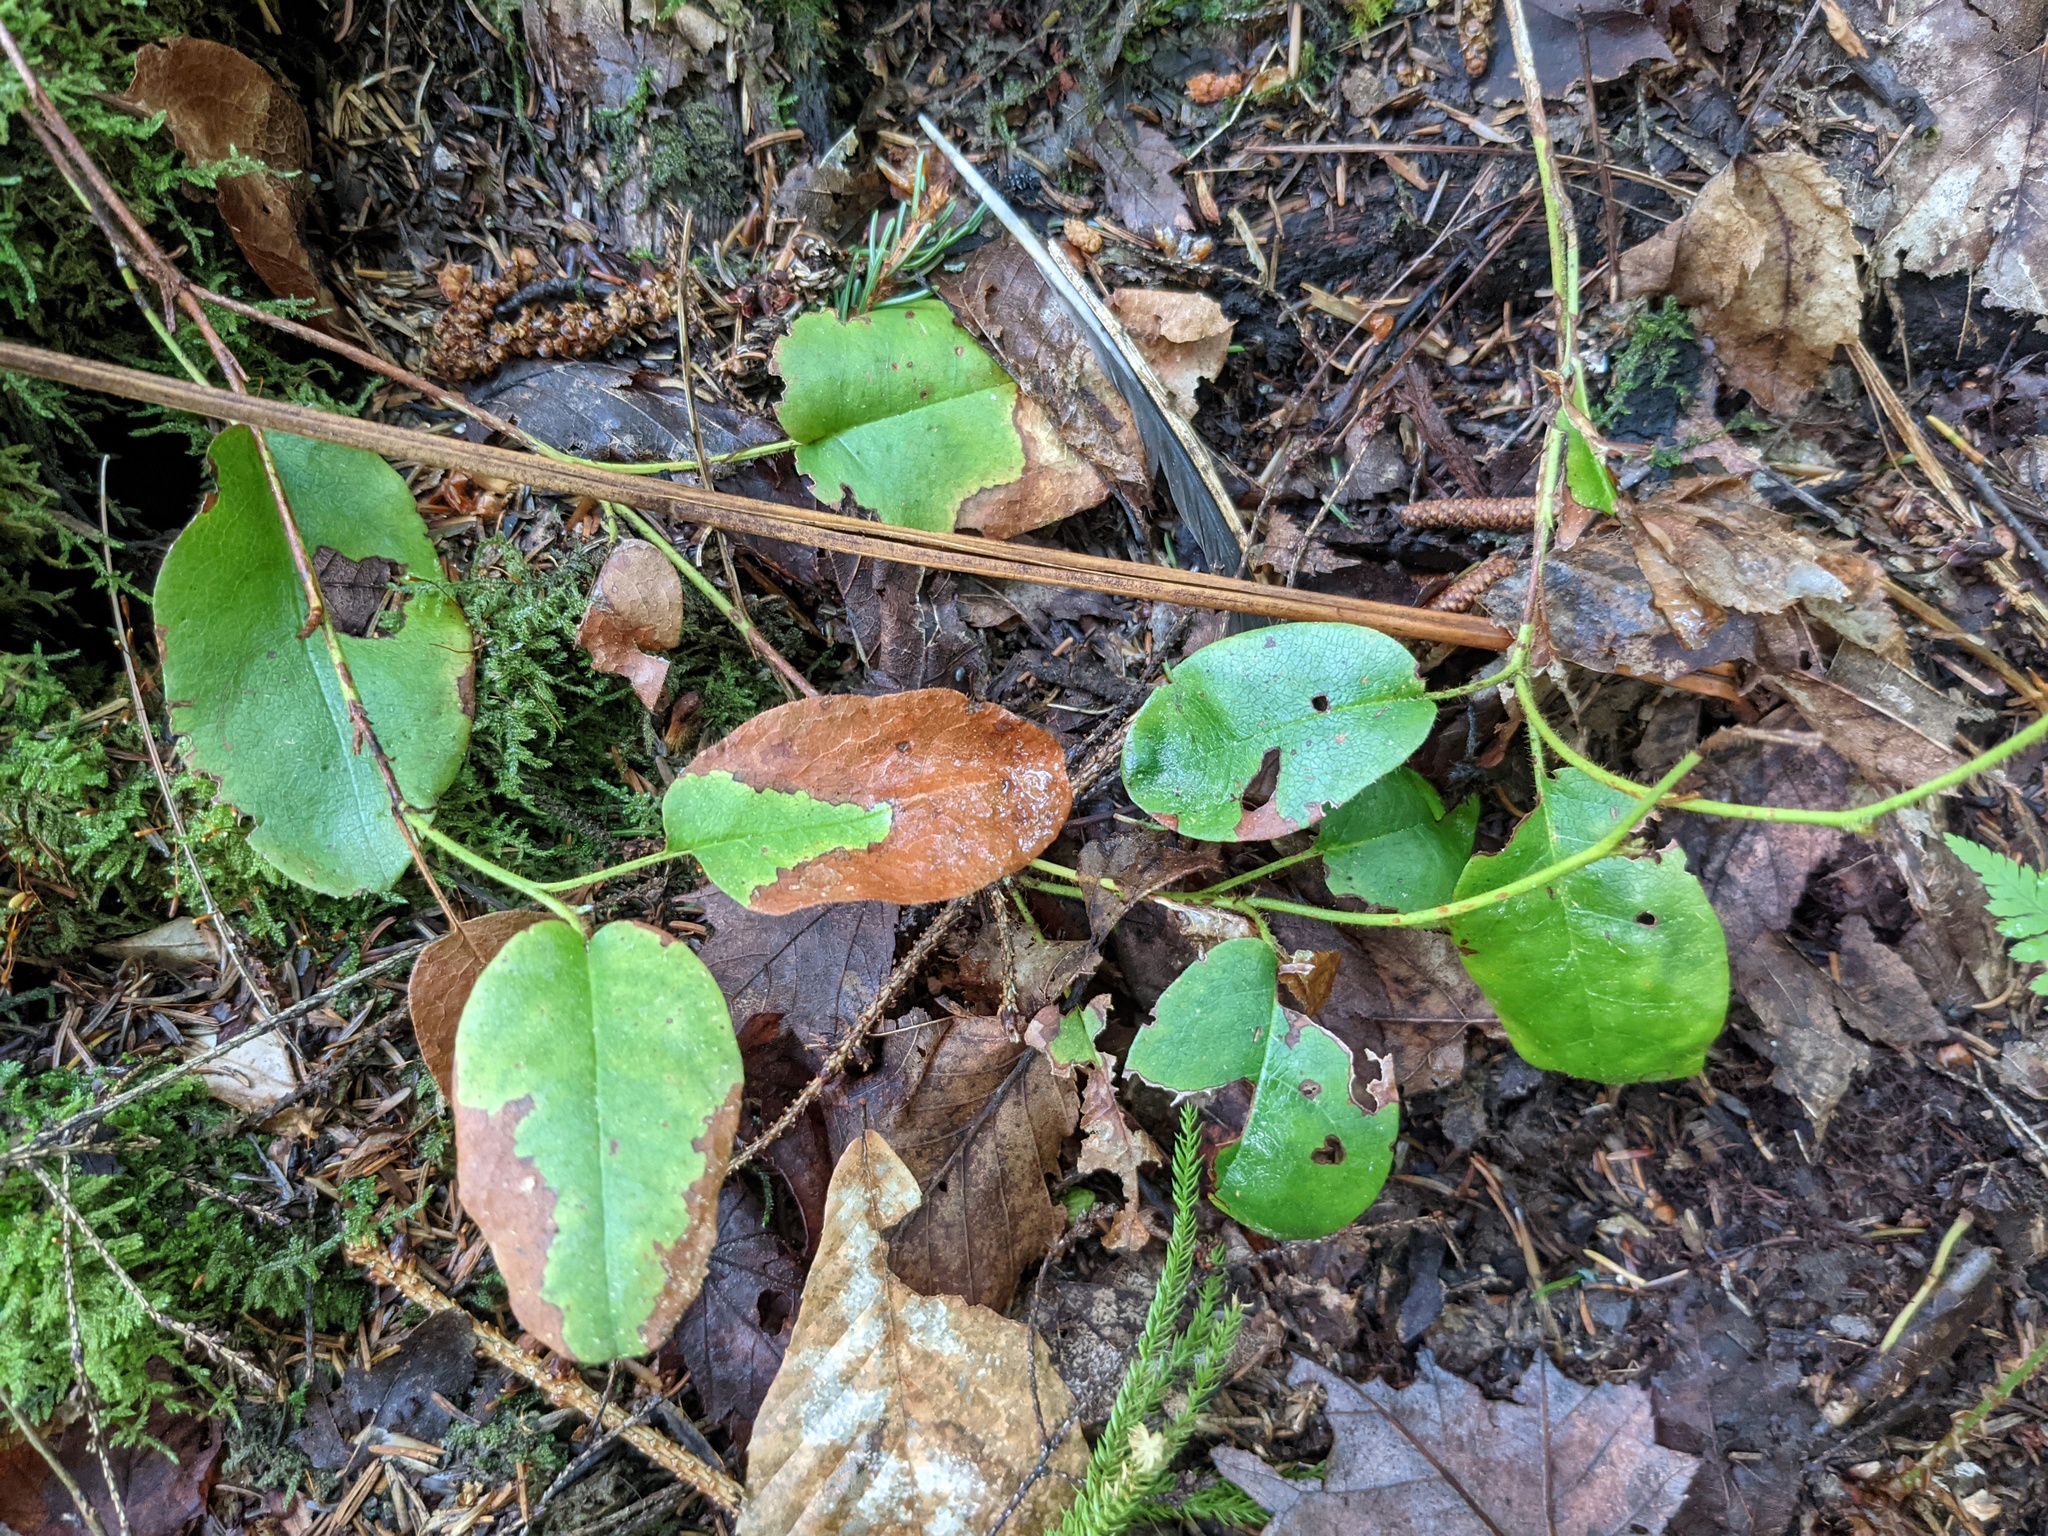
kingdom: Plantae
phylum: Tracheophyta
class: Magnoliopsida
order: Ericales
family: Ericaceae
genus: Epigaea
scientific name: Epigaea repens
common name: Gravelroot
